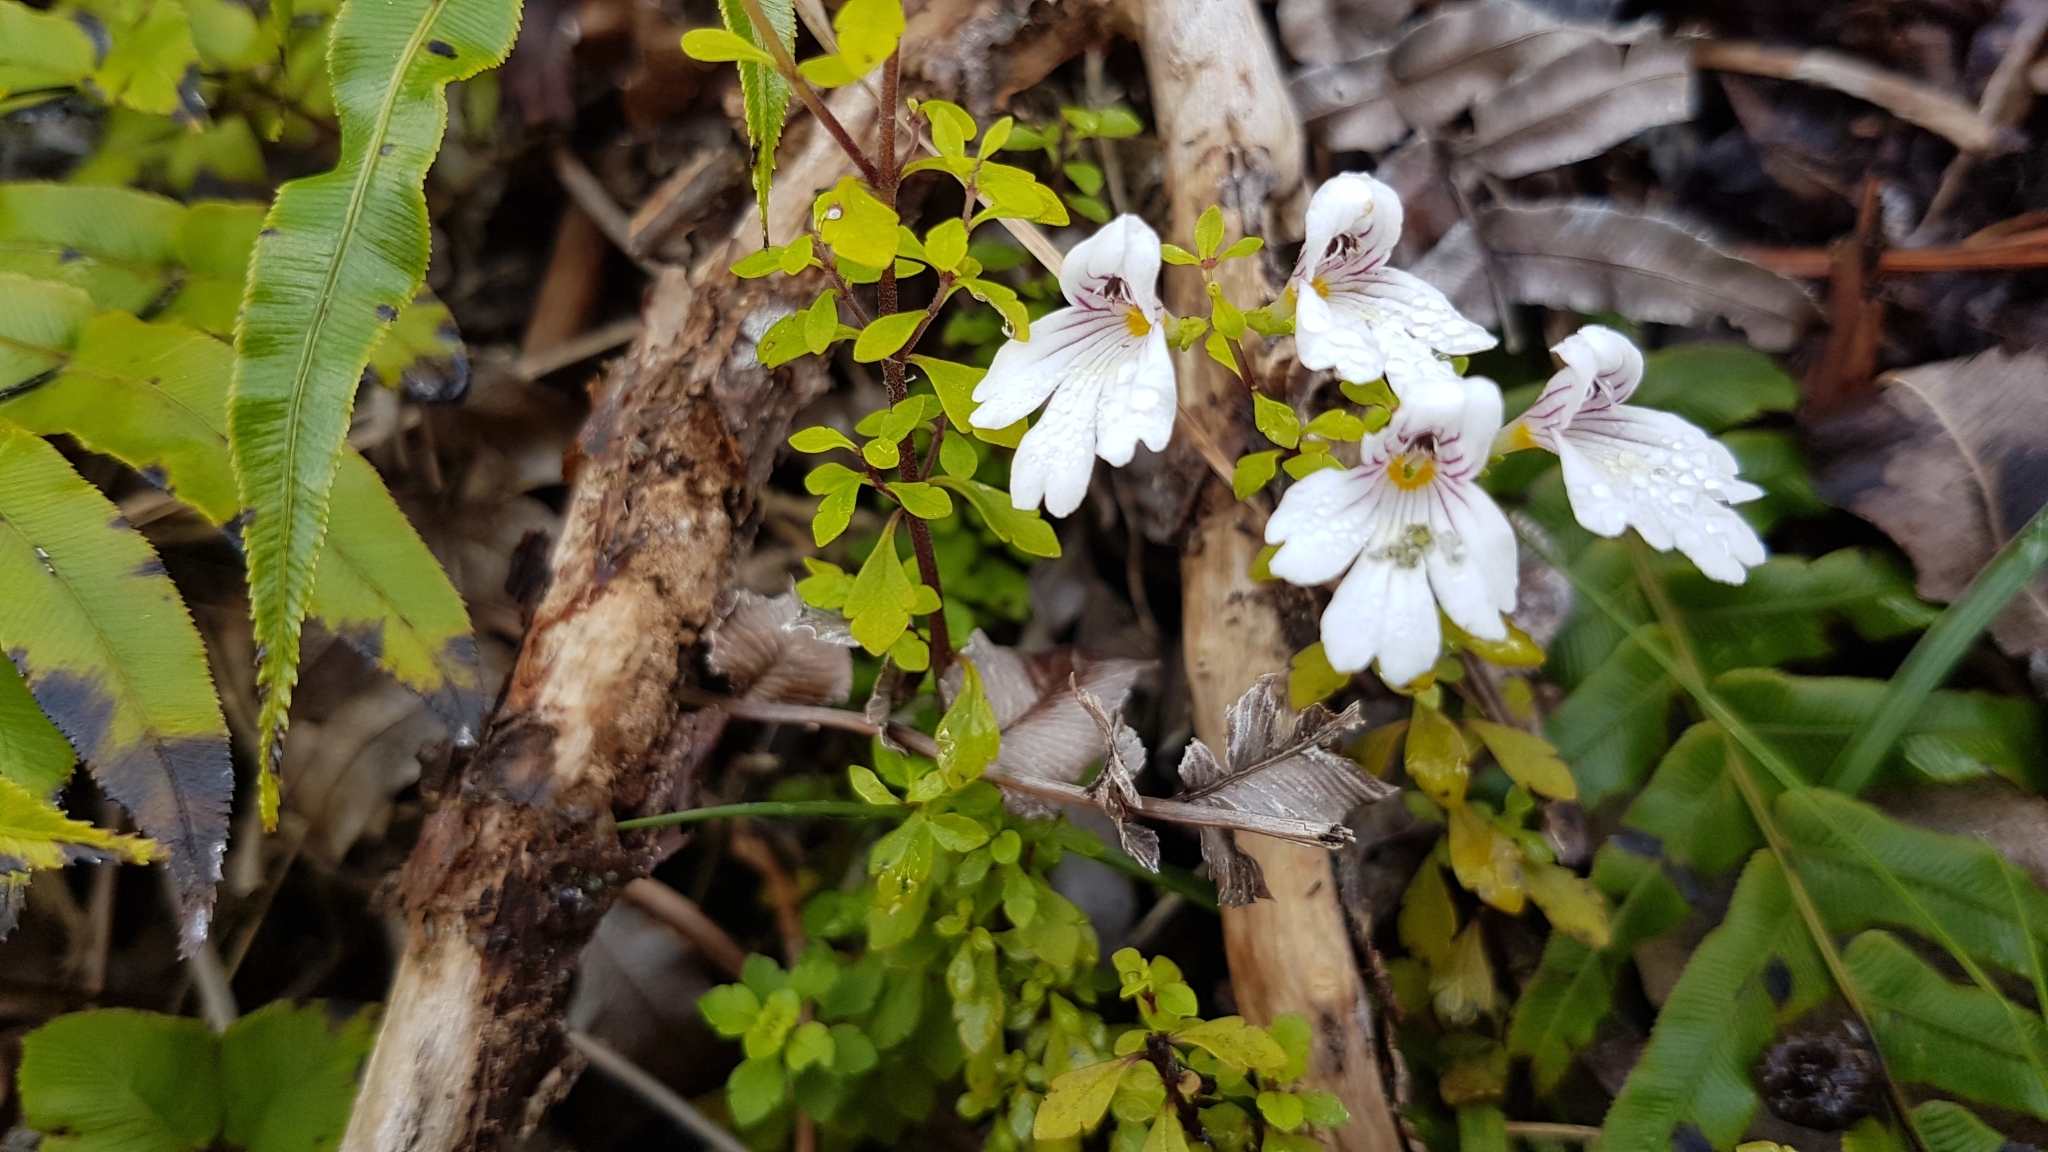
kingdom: Plantae
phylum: Tracheophyta
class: Magnoliopsida
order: Lamiales
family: Orobanchaceae
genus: Euphrasia
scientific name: Euphrasia cuneata
